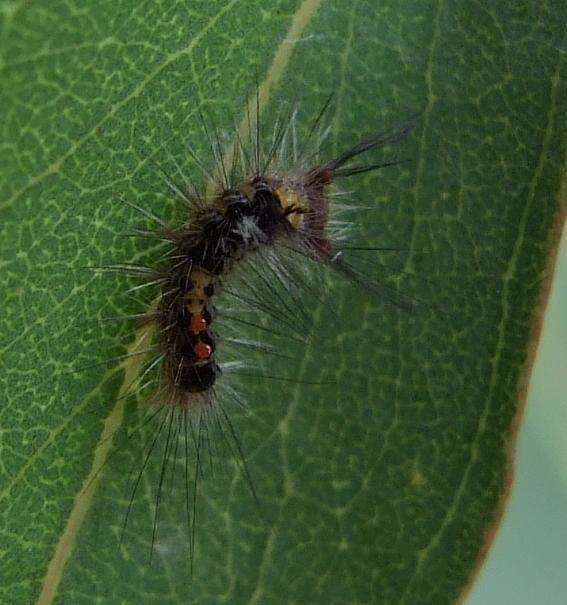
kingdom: Animalia
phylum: Arthropoda
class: Insecta
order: Lepidoptera
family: Erebidae
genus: Orgyia
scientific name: Orgyia
